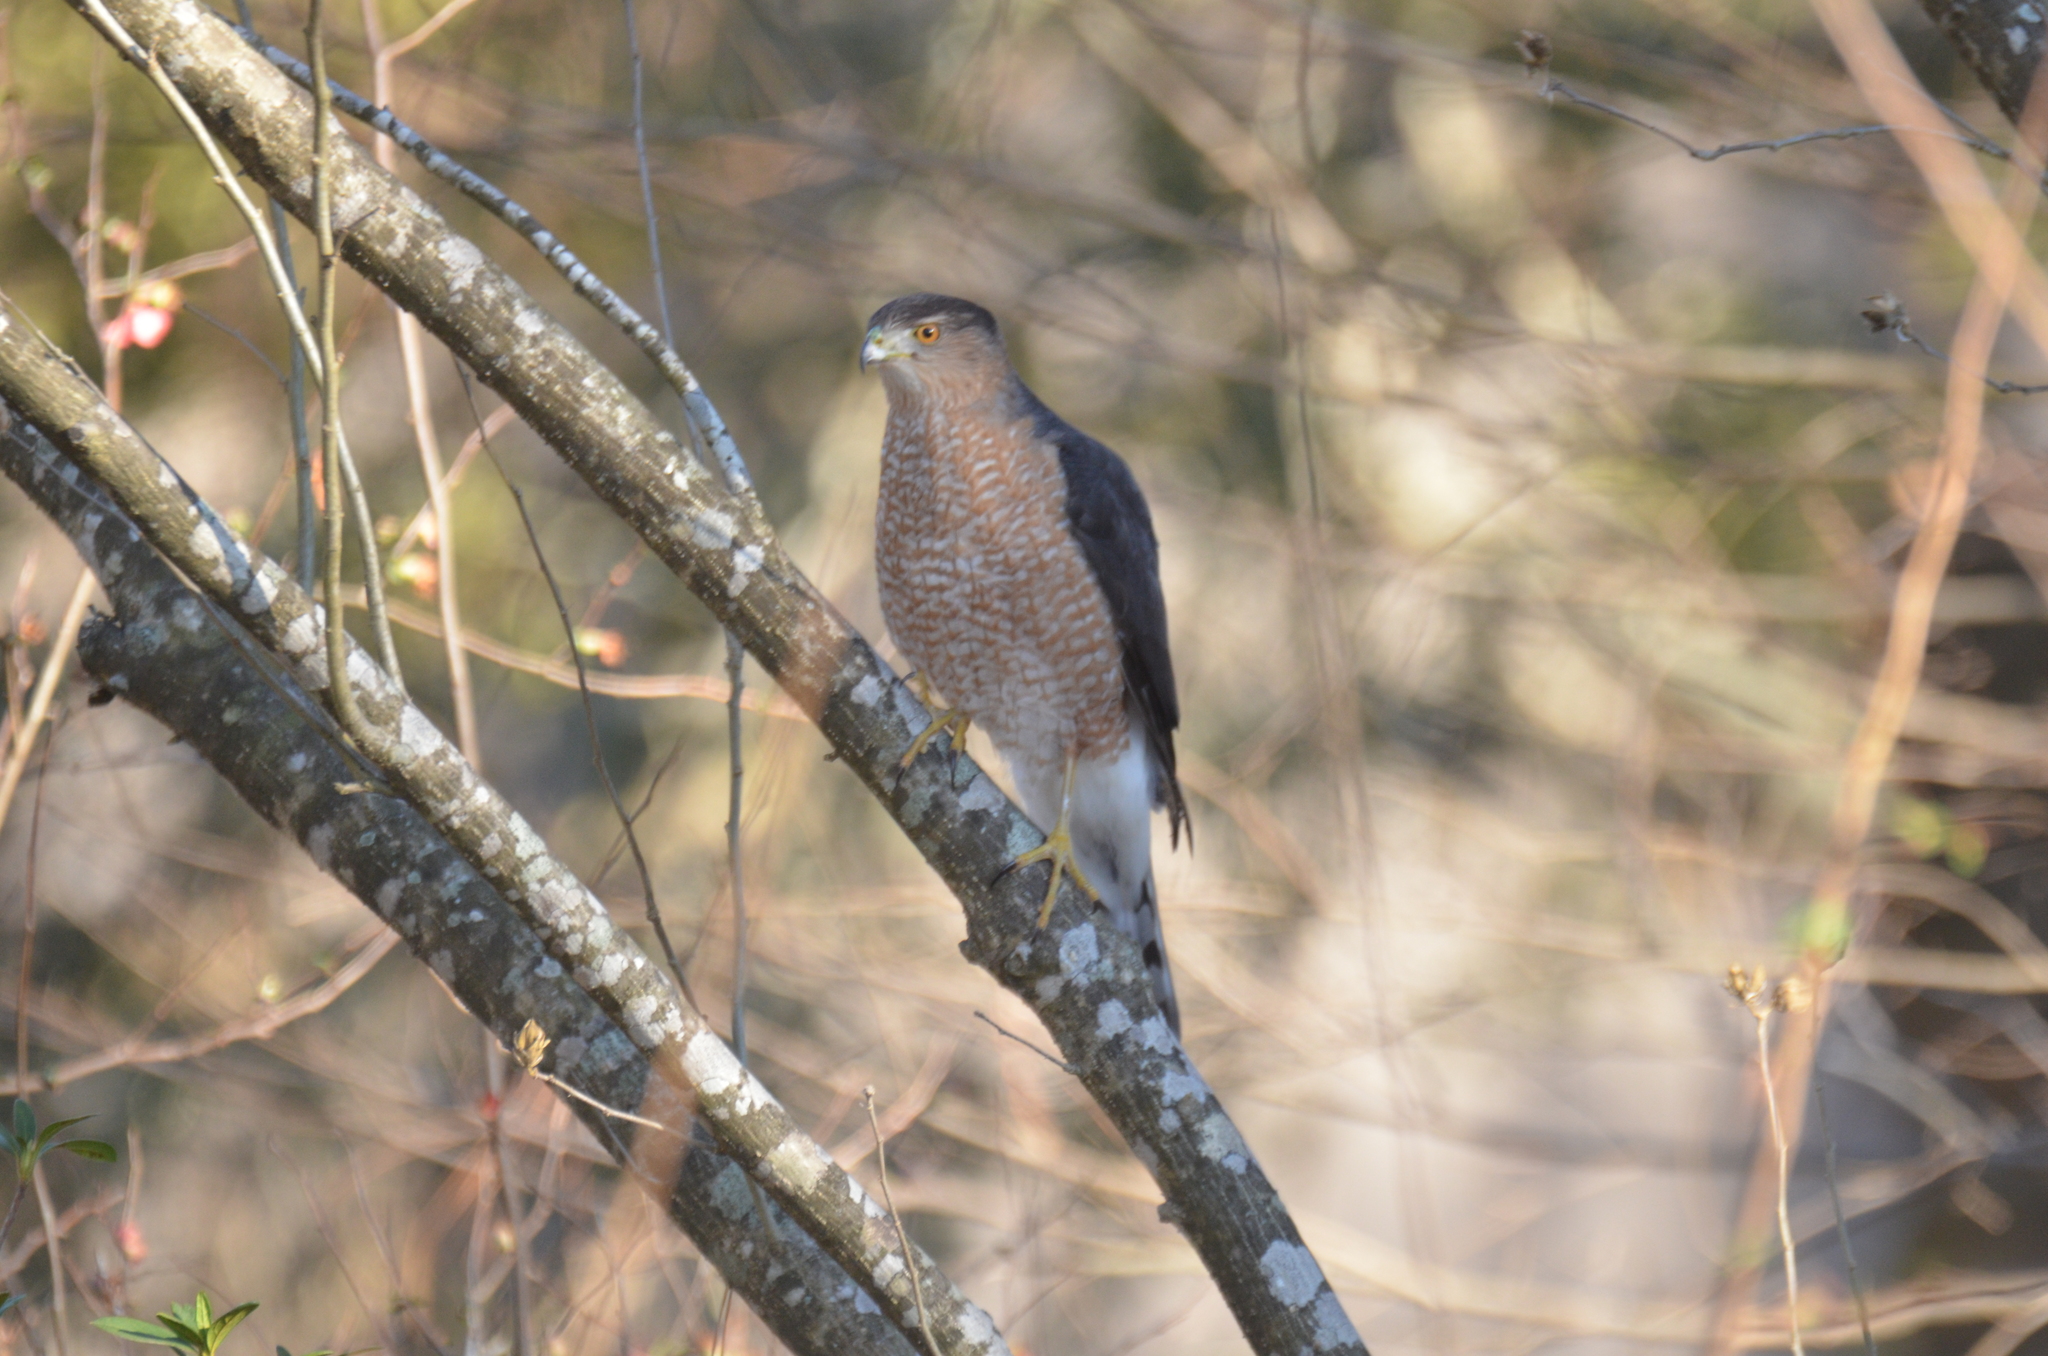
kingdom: Animalia
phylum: Chordata
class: Aves
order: Accipitriformes
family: Accipitridae
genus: Accipiter
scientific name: Accipiter cooperii
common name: Cooper's hawk
